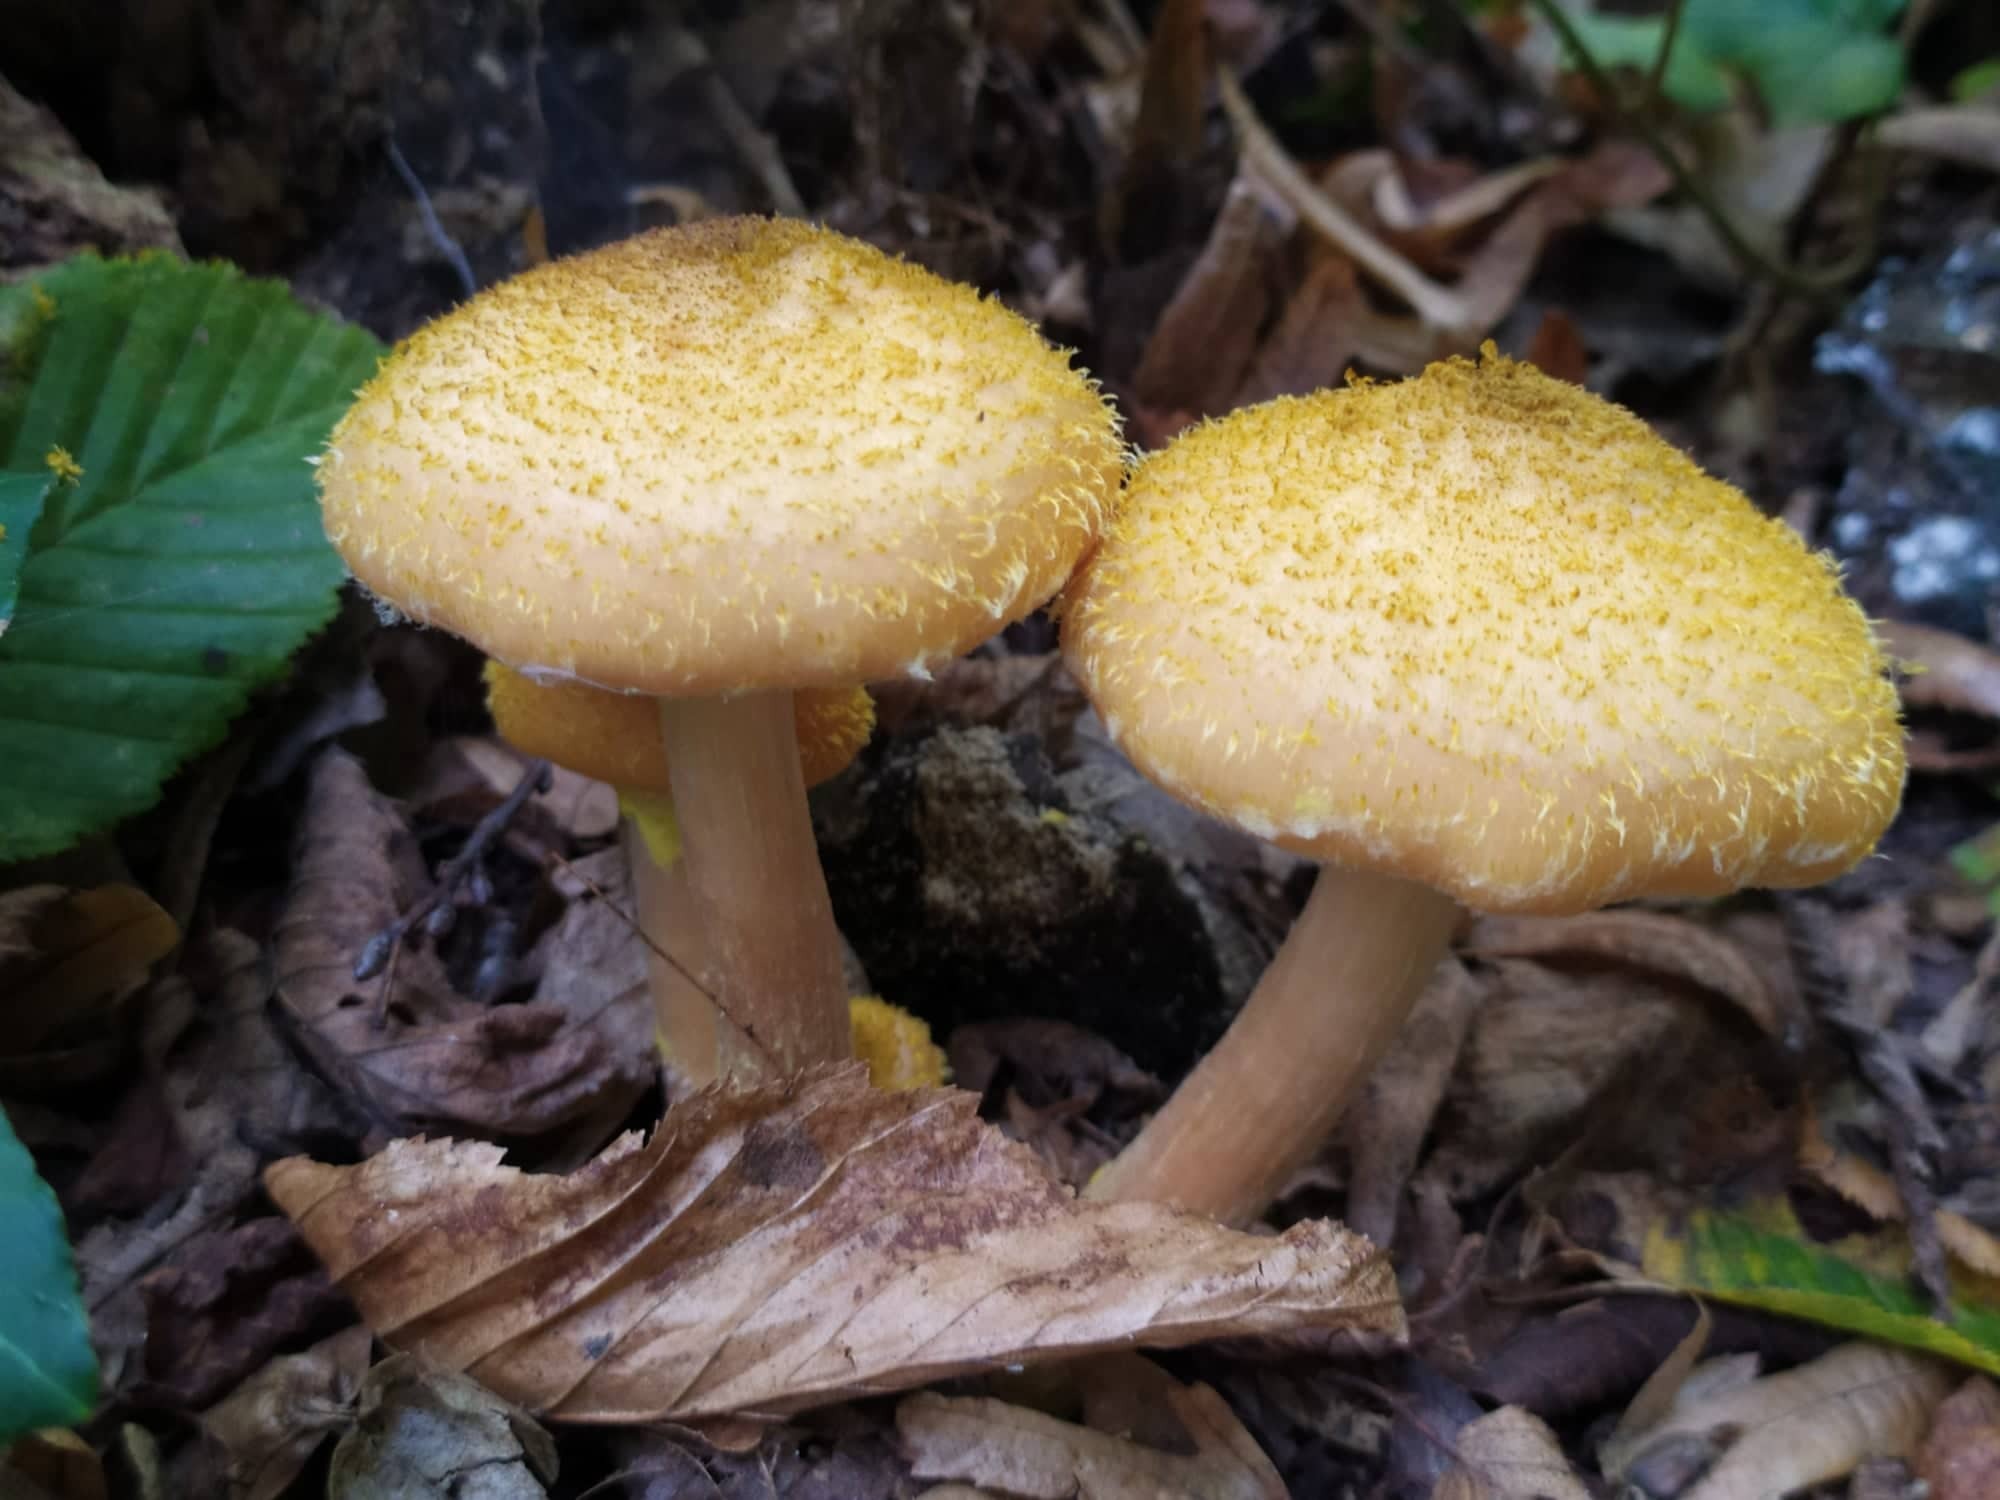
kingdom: Fungi
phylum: Basidiomycota
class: Agaricomycetes
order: Agaricales
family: Physalacriaceae
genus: Armillaria
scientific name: Armillaria mellea
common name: Honey fungus
